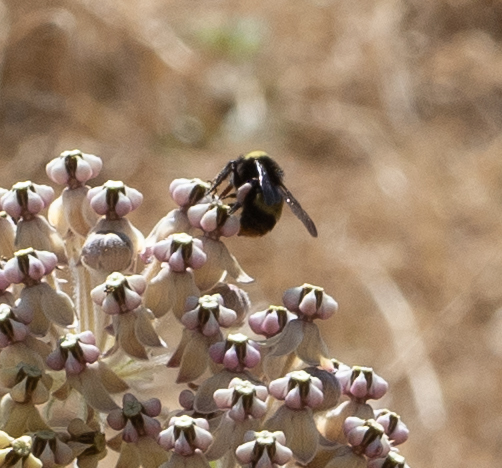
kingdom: Animalia
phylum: Arthropoda
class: Insecta
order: Hymenoptera
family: Apidae
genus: Bombus
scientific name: Bombus crotchii
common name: Crotch bumble bee
